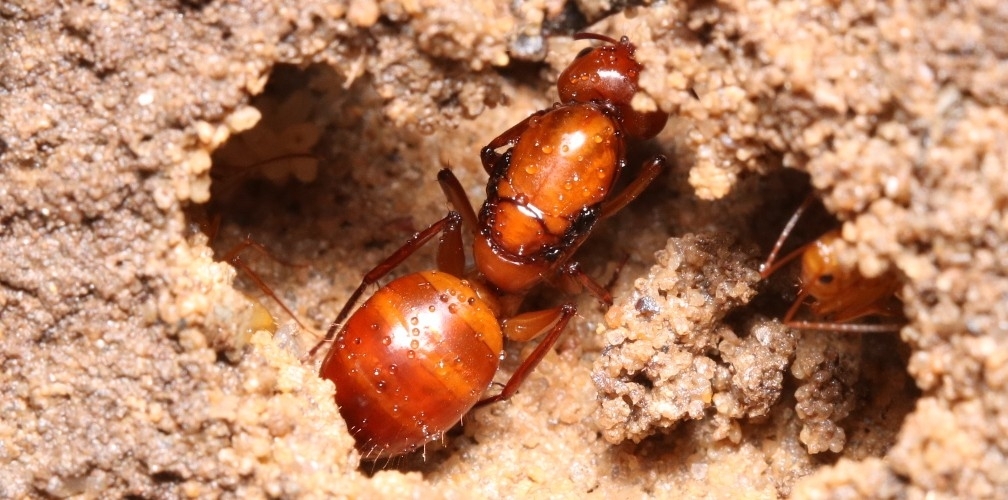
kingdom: Animalia
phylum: Arthropoda
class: Insecta
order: Hymenoptera
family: Formicidae
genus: Camponotus
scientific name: Camponotus castaneus
